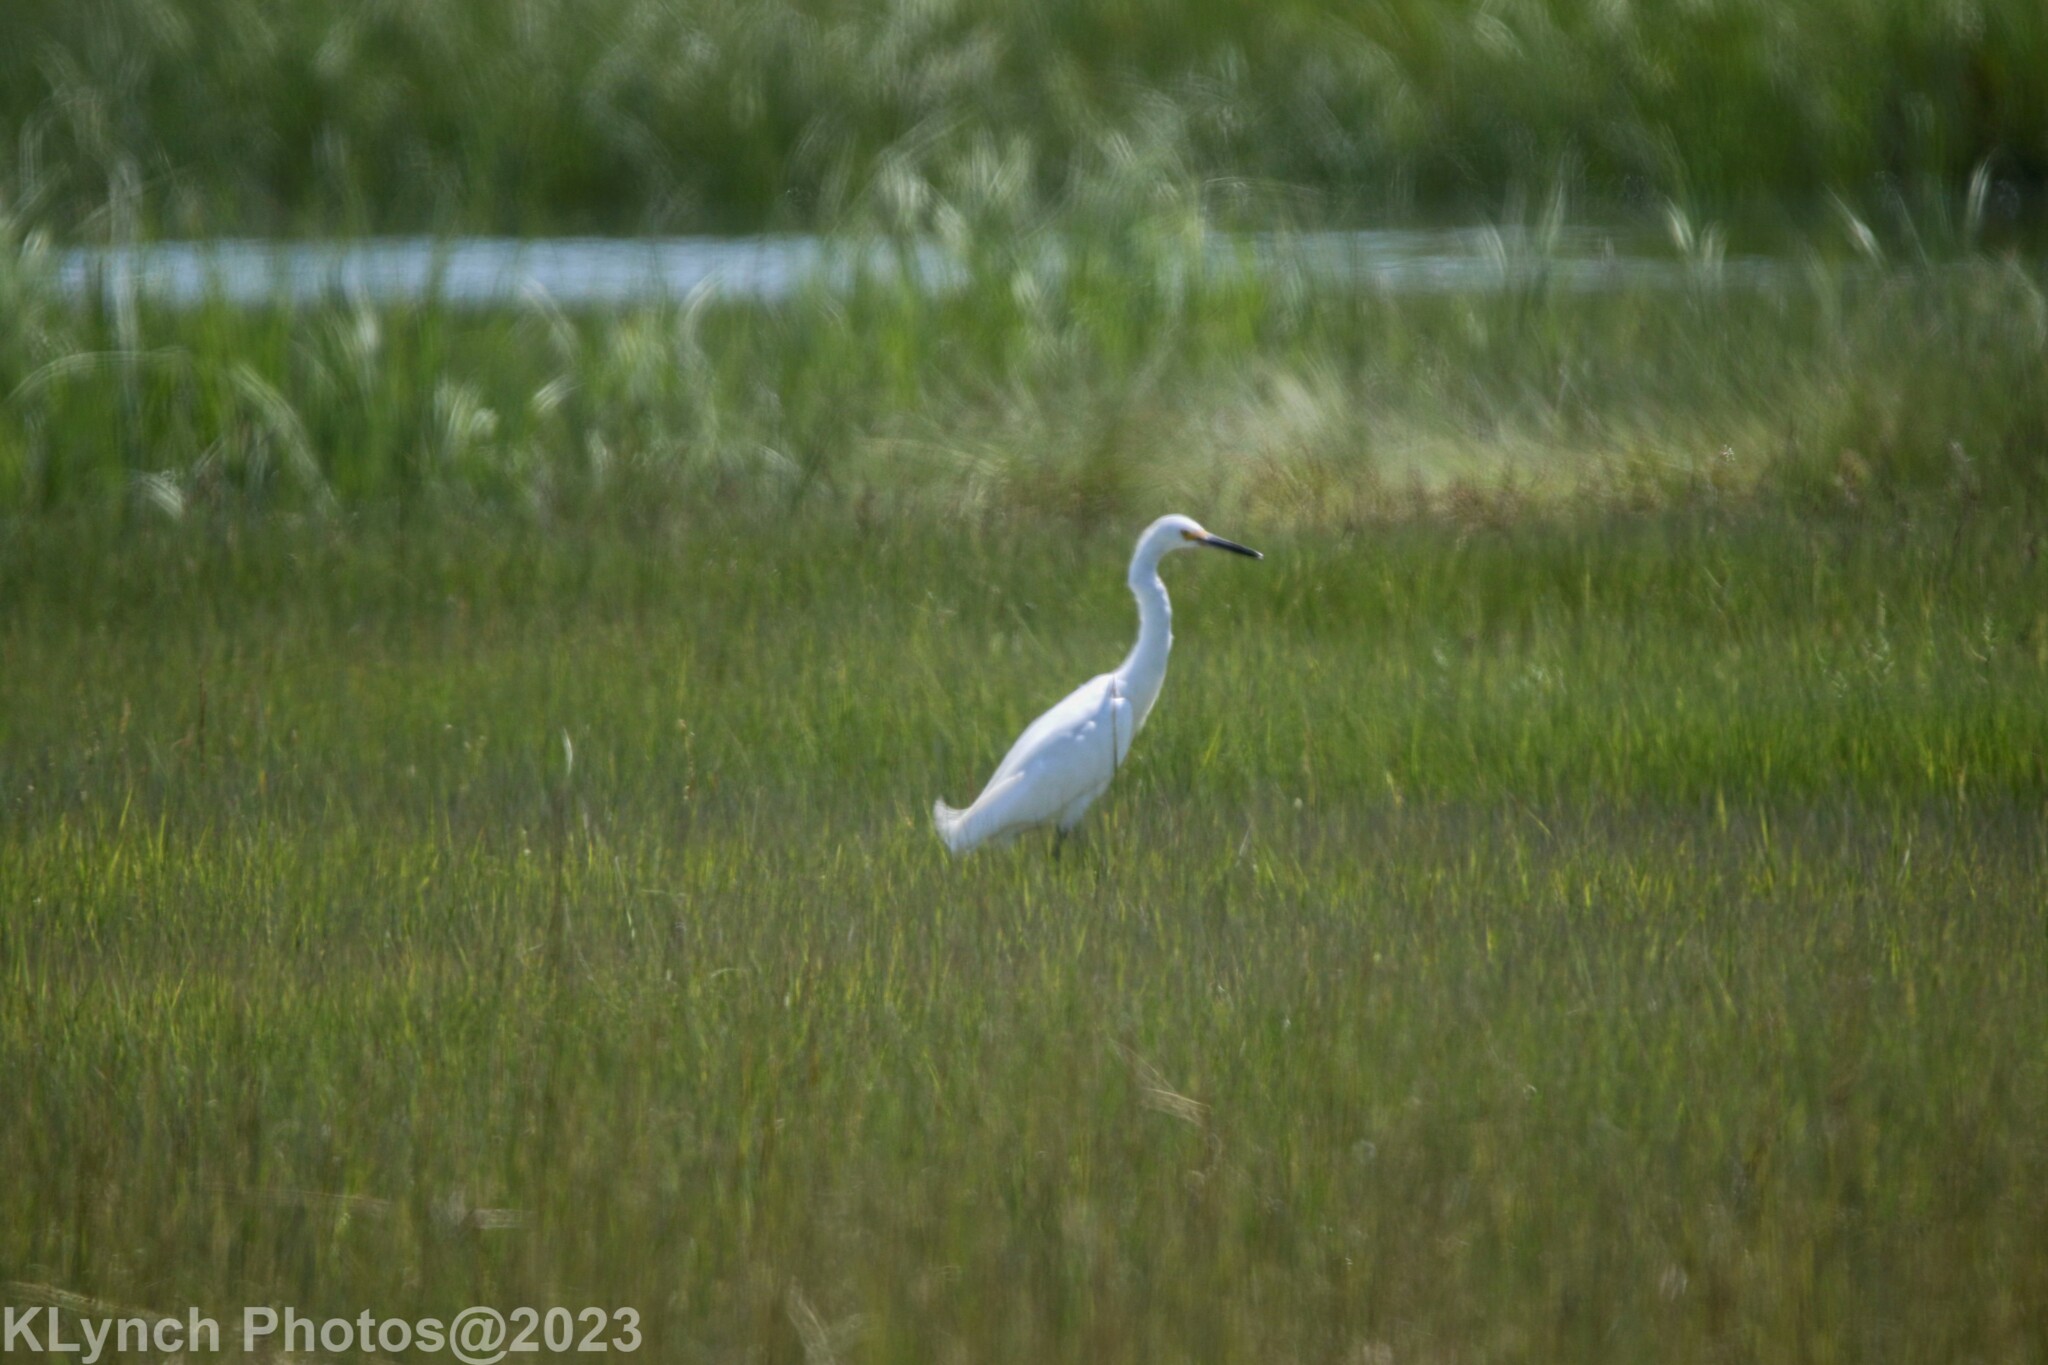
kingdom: Animalia
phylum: Chordata
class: Aves
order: Pelecaniformes
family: Ardeidae
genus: Egretta
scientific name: Egretta thula
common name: Snowy egret
